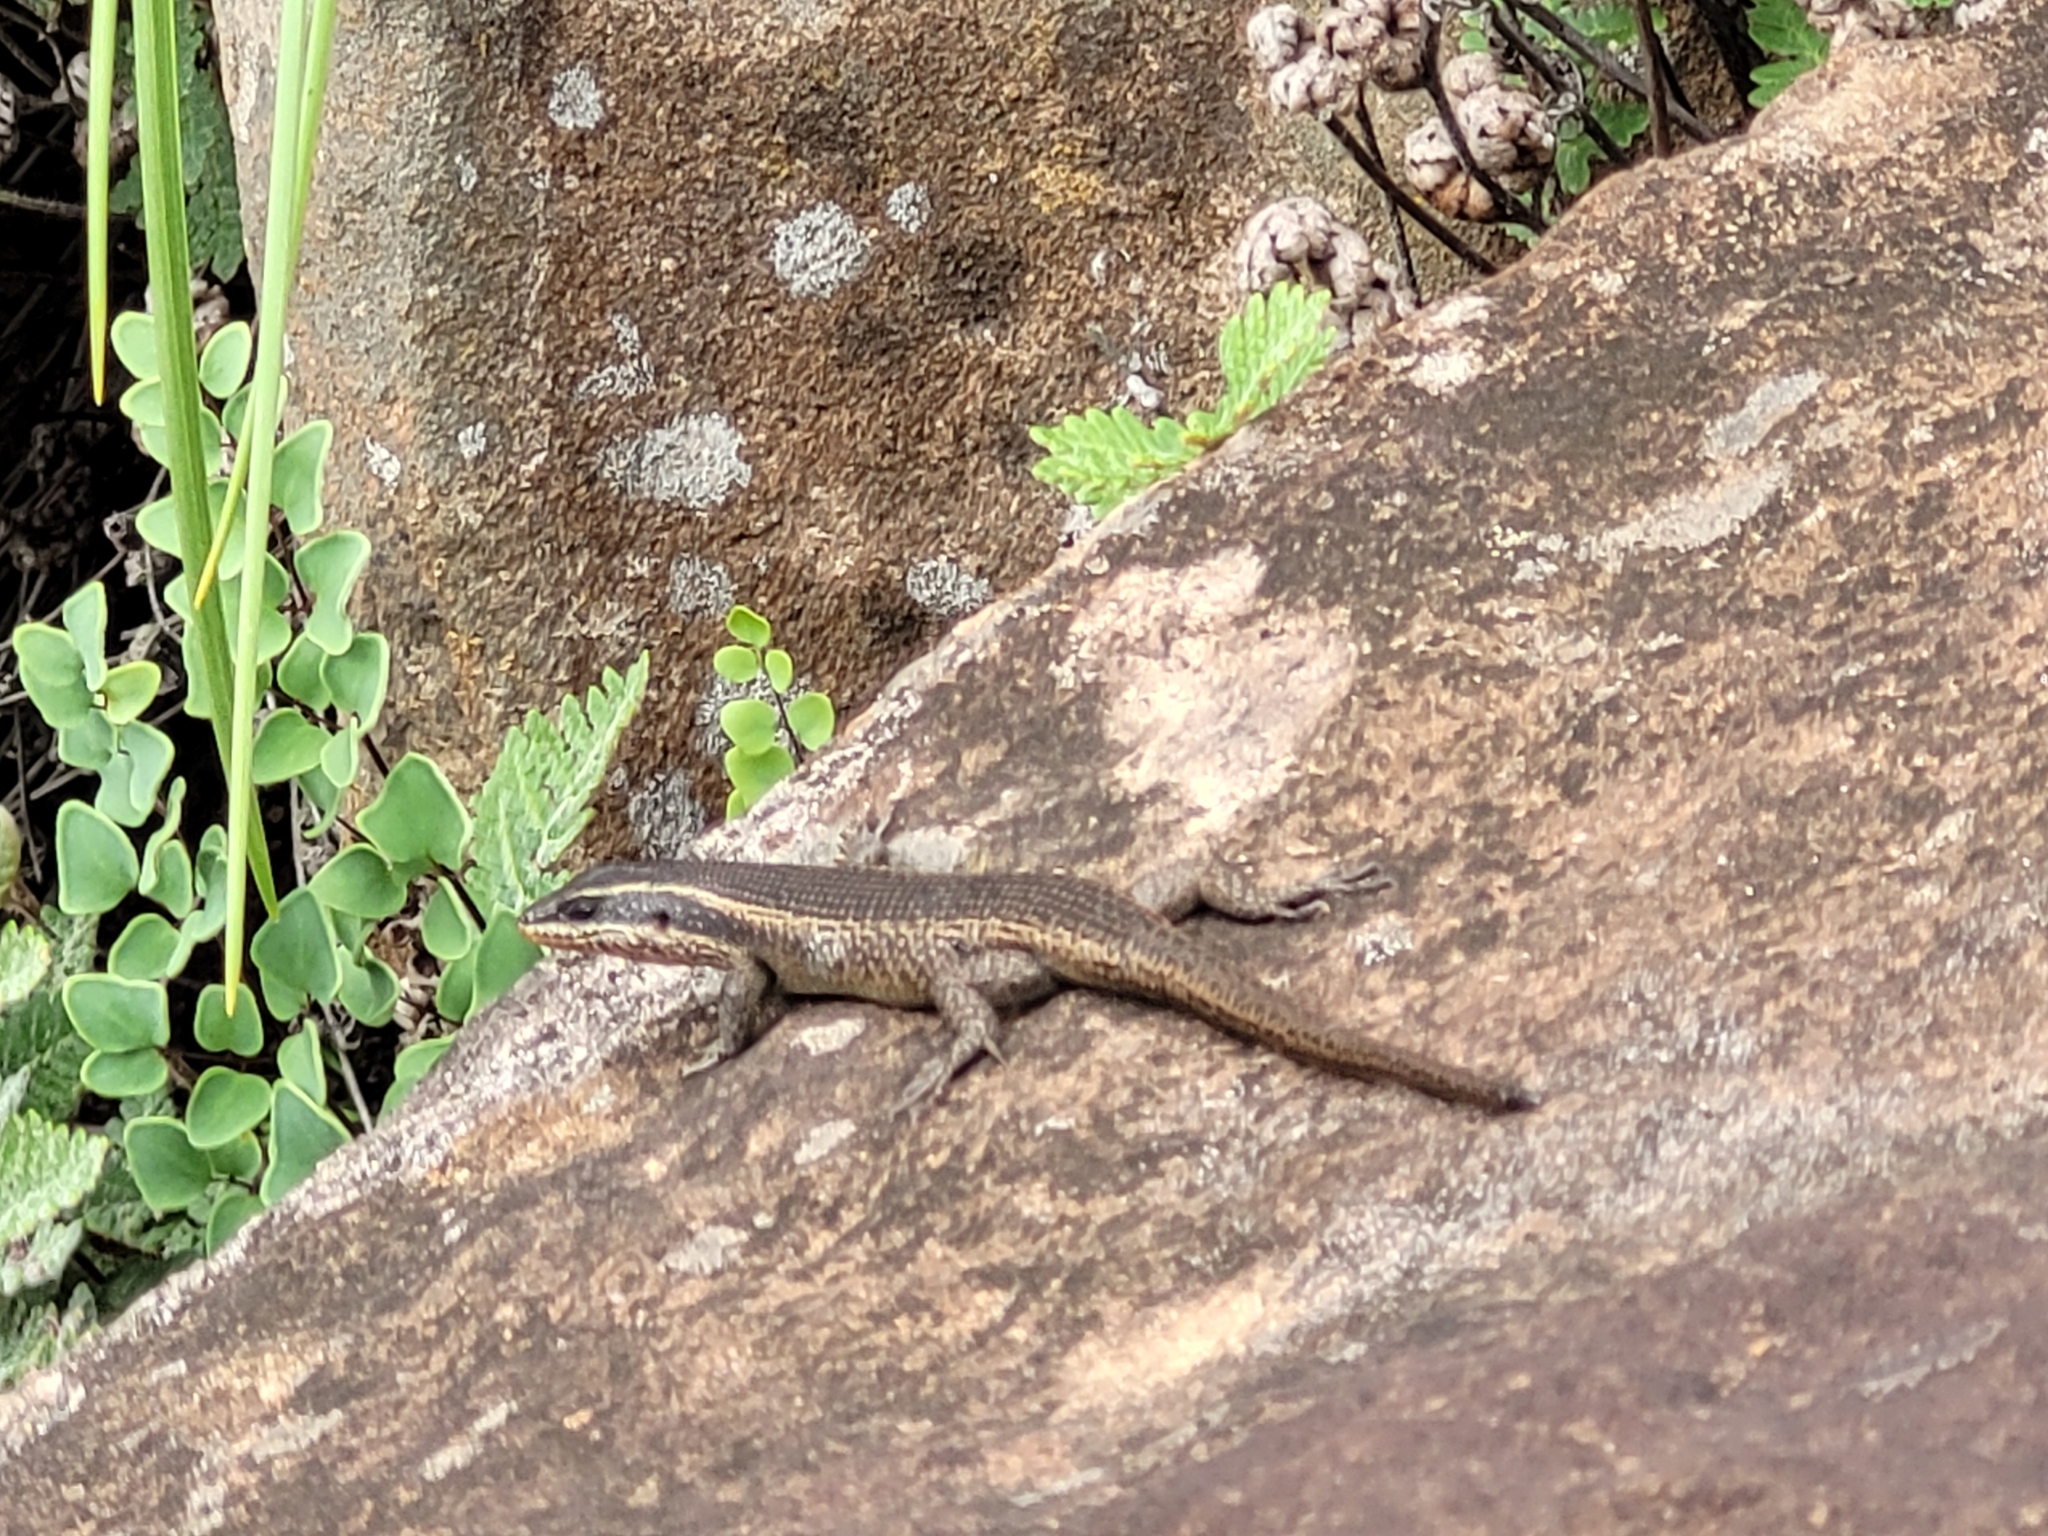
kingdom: Animalia
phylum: Chordata
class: Squamata
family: Scincidae
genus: Trachylepis
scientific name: Trachylepis punctatissima
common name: Montane speckled skink
